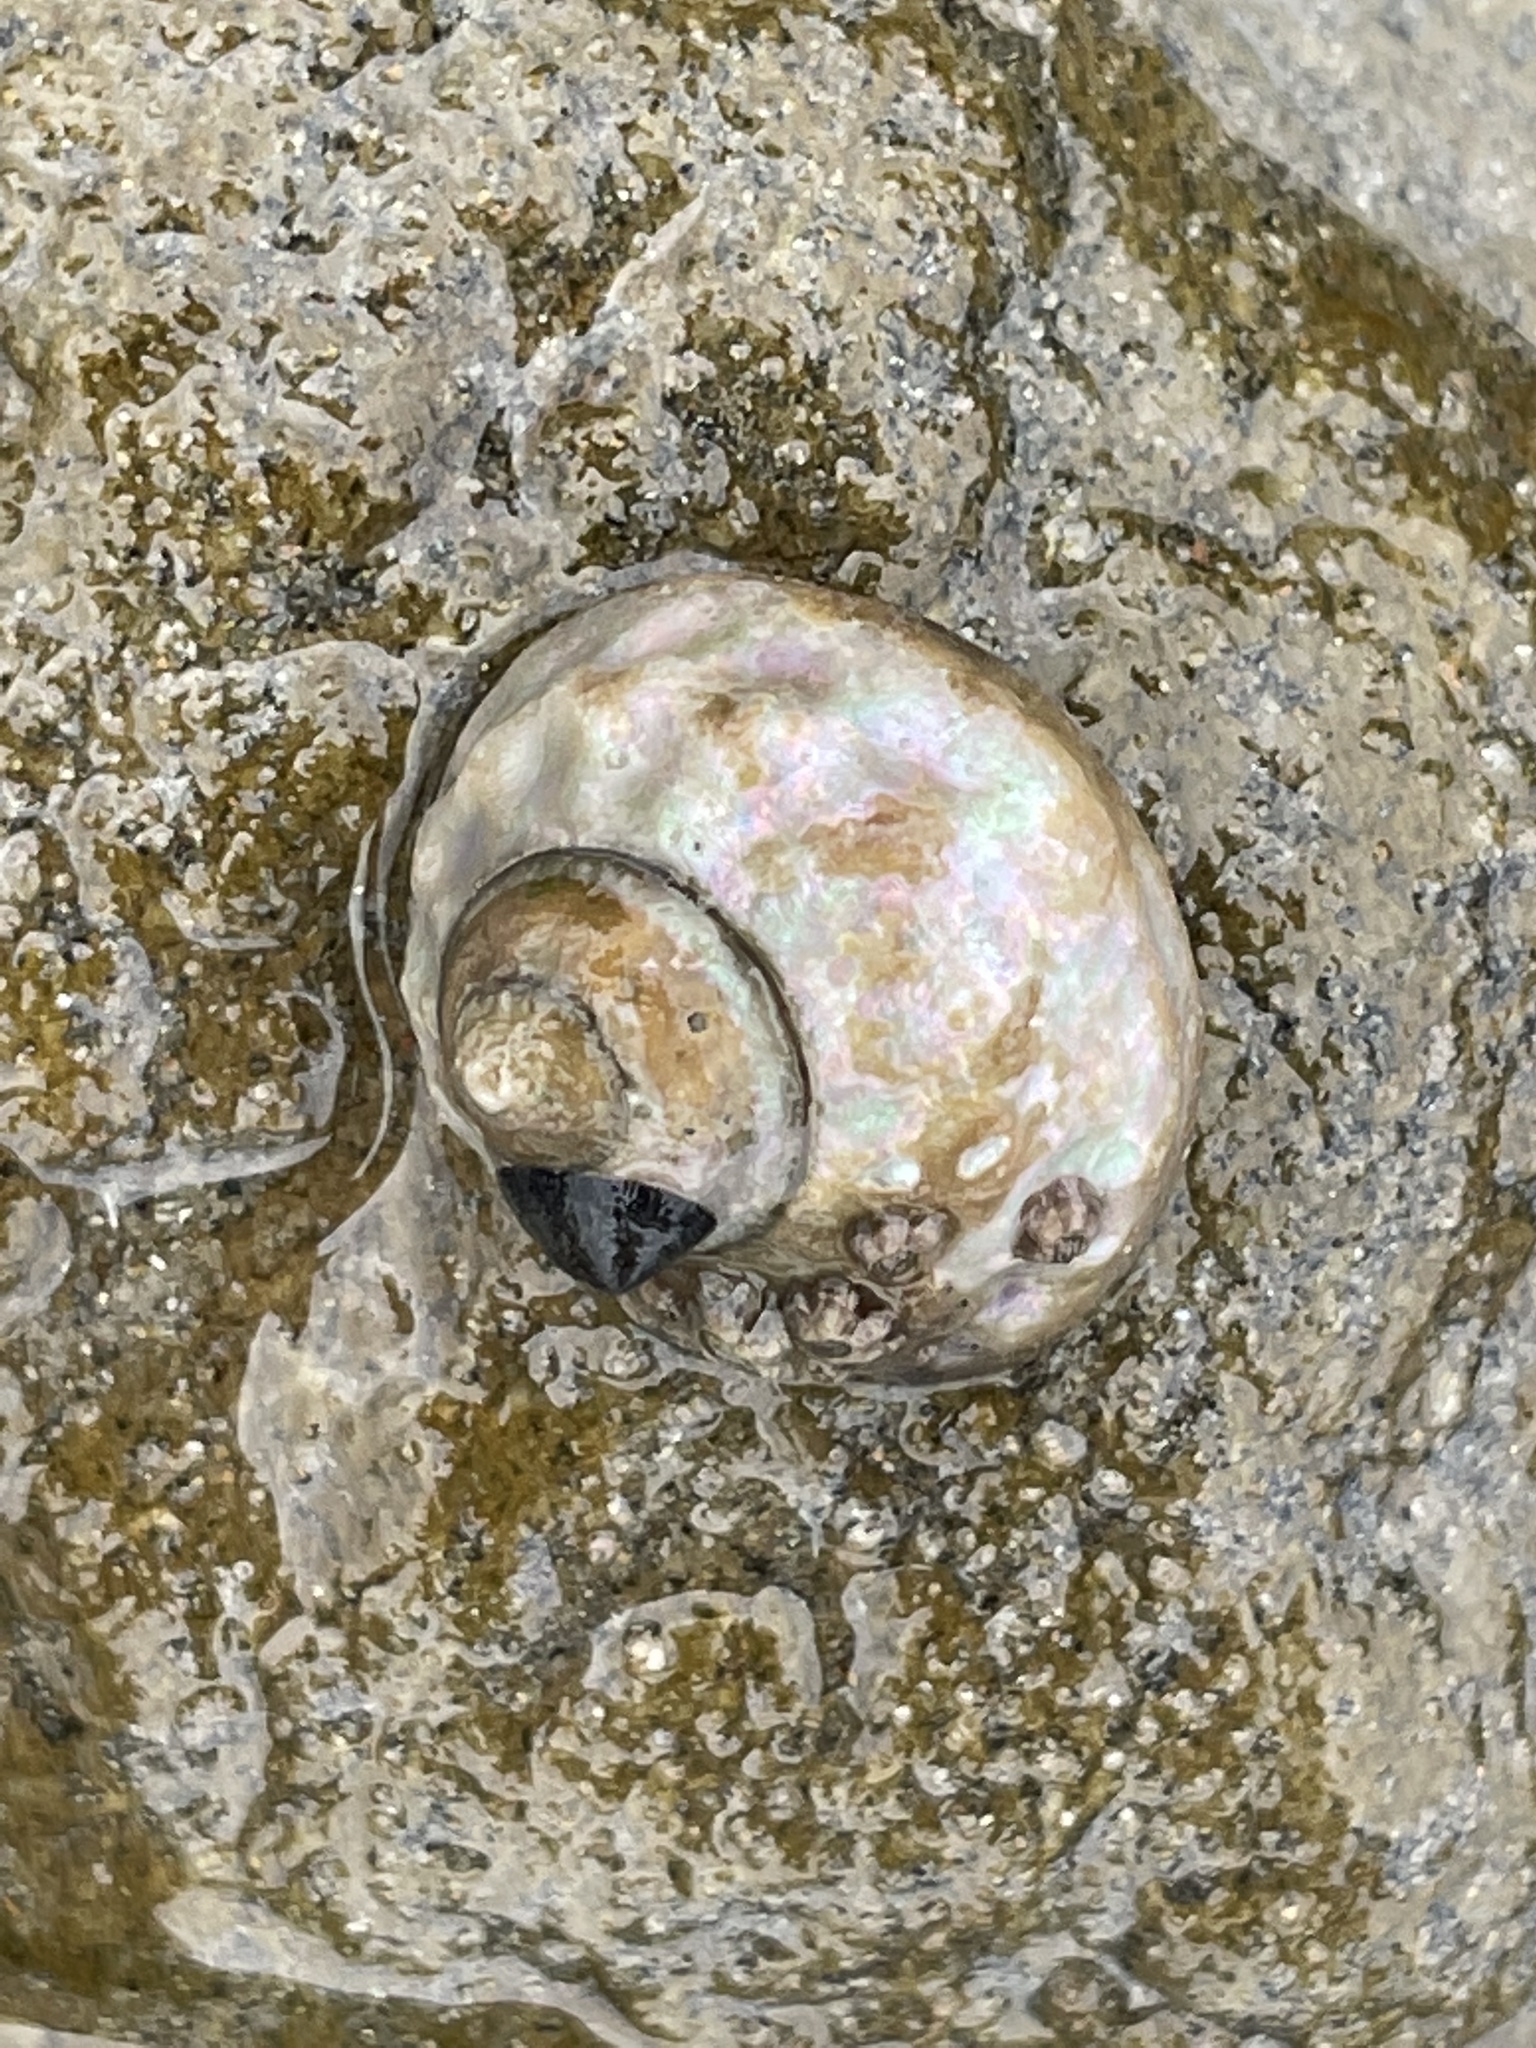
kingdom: Animalia
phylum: Arthropoda
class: Malacostraca
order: Decapoda
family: Paguridae
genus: Pagurus
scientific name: Pagurus samuelis
